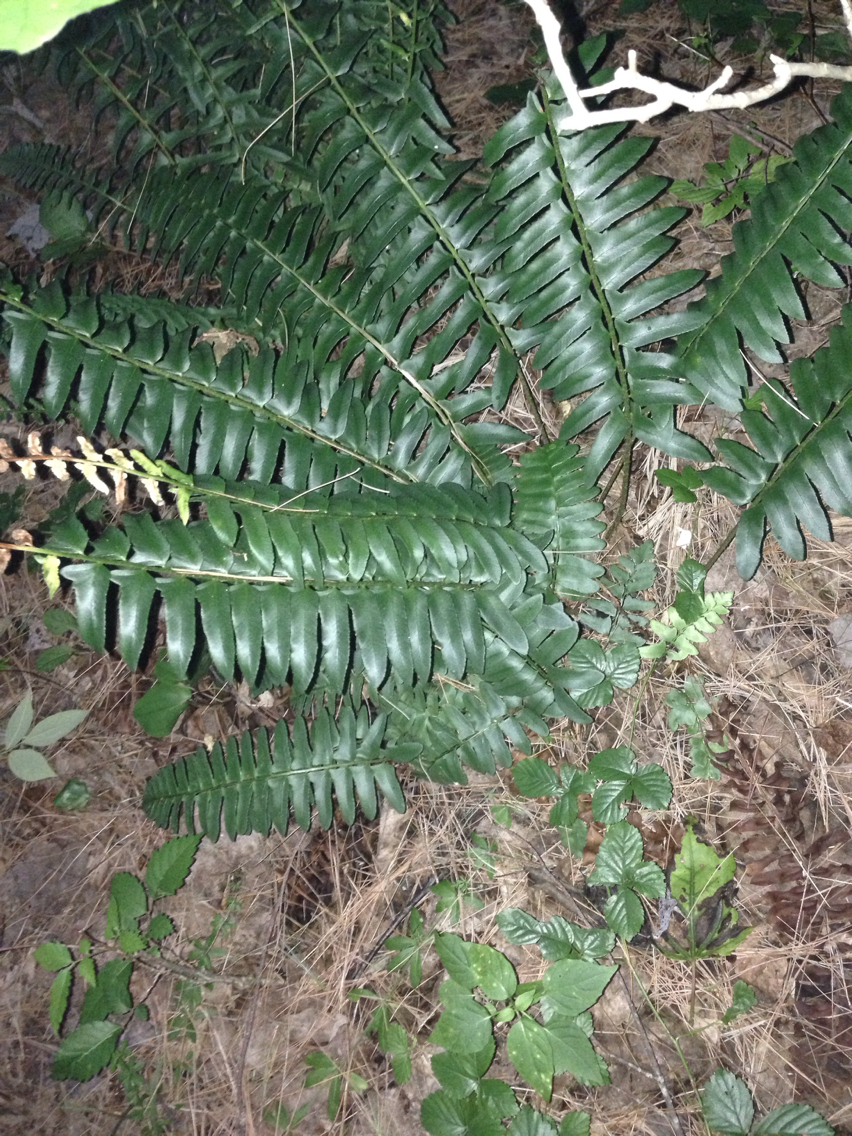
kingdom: Plantae
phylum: Tracheophyta
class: Polypodiopsida
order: Polypodiales
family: Dryopteridaceae
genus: Polystichum
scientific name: Polystichum acrostichoides
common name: Christmas fern
